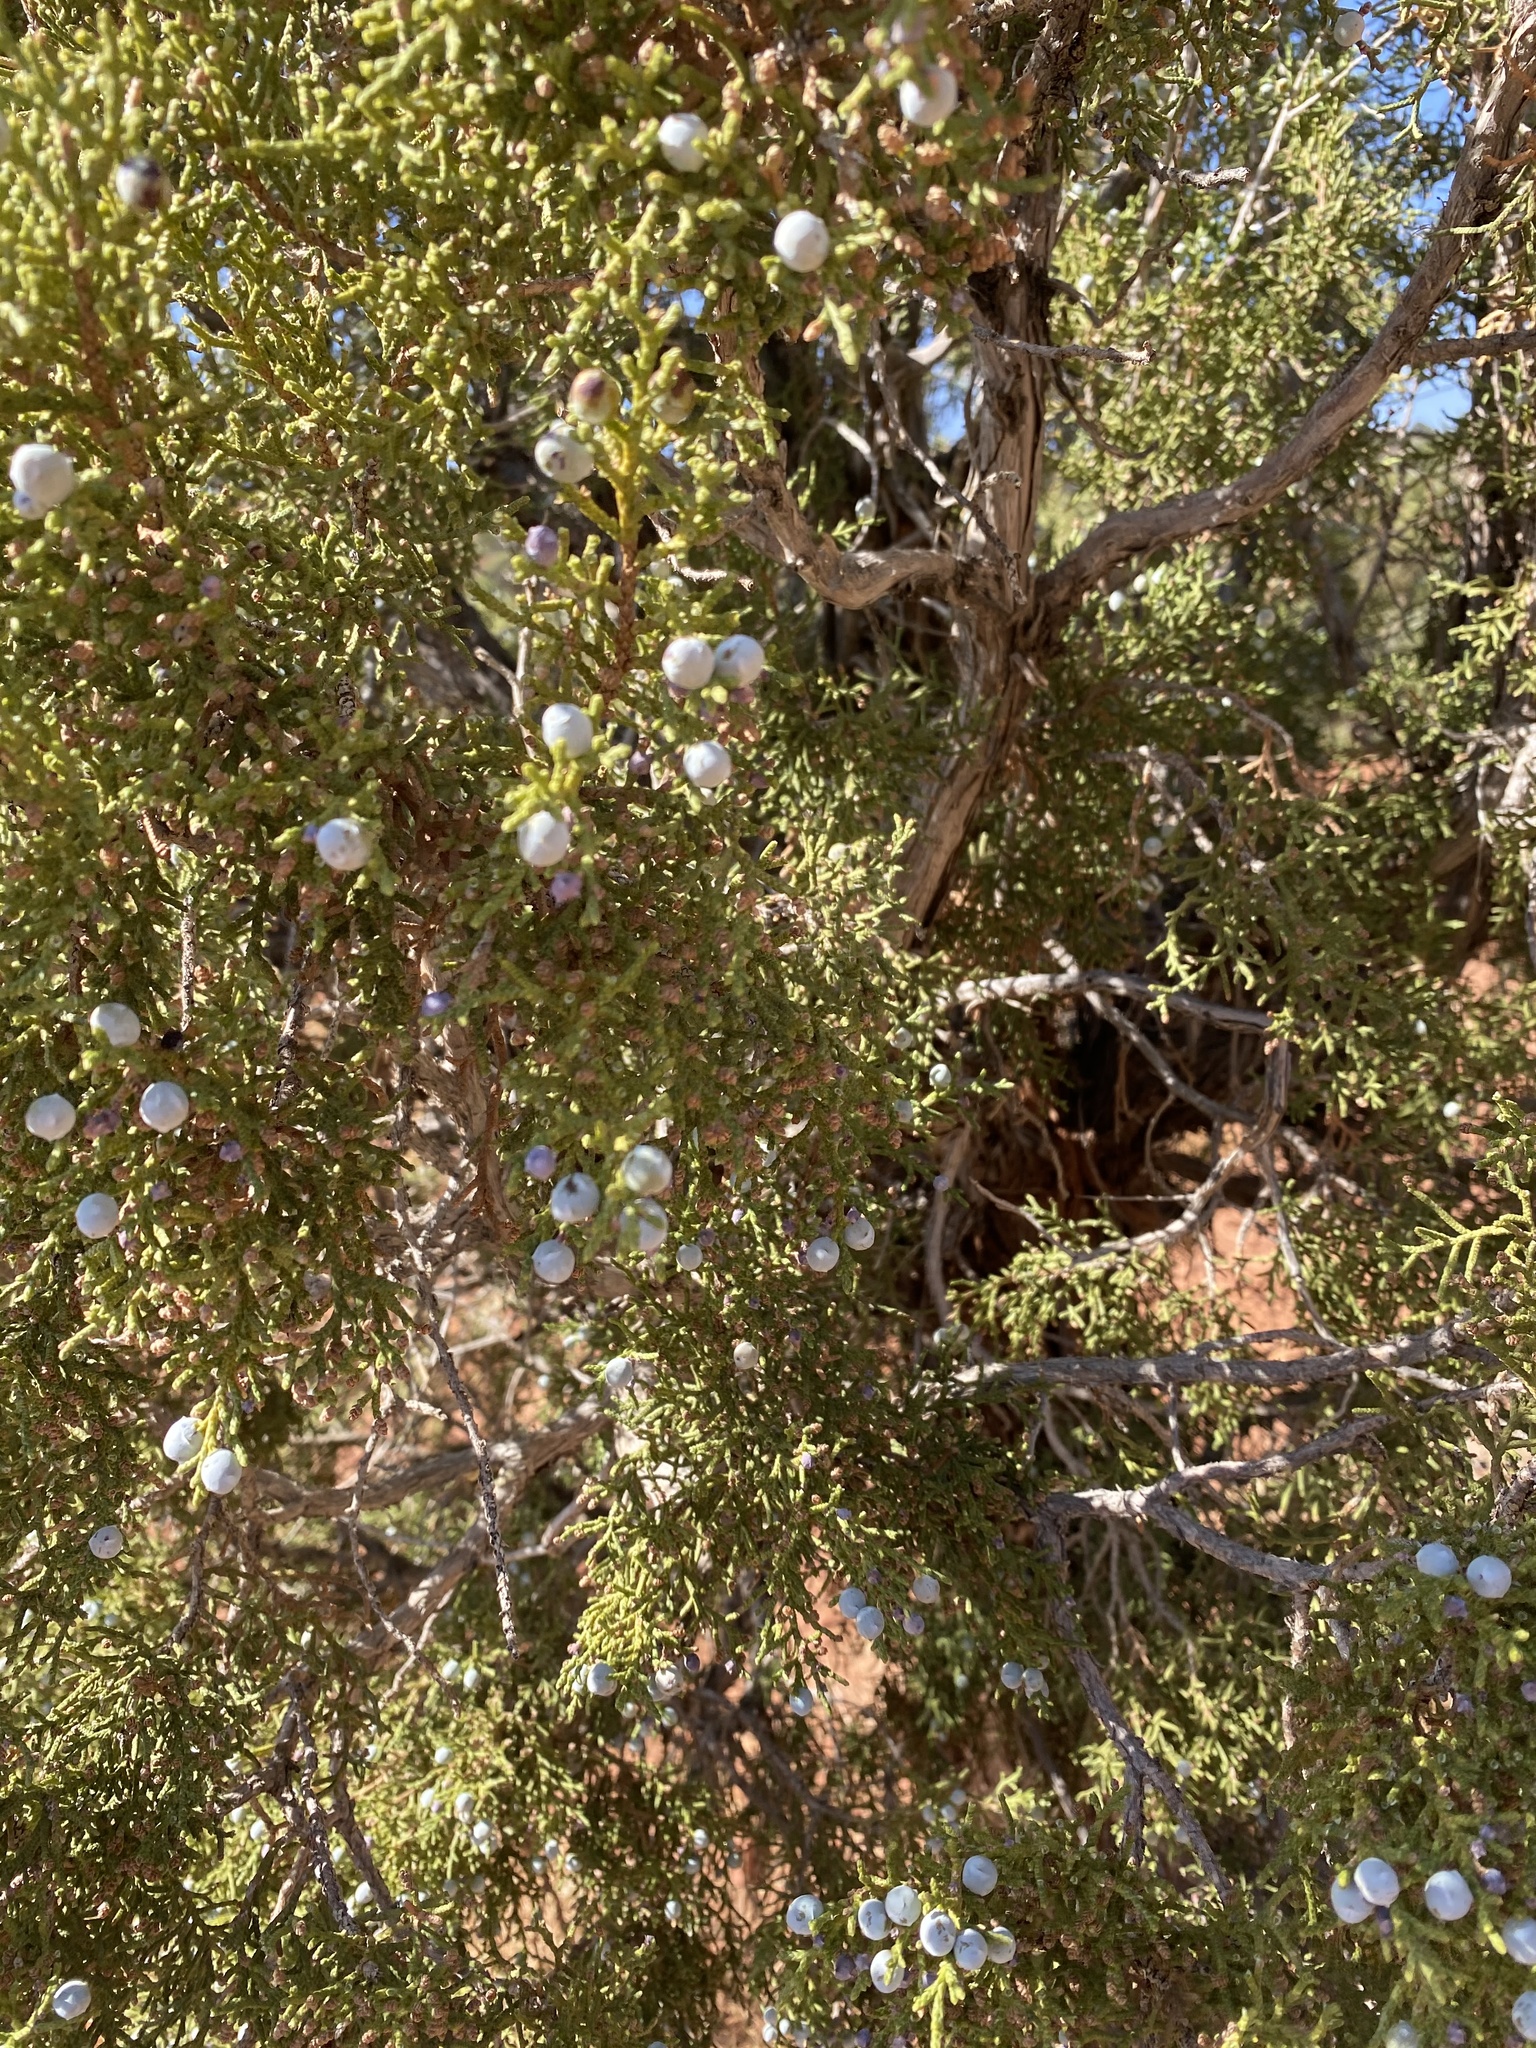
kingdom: Plantae
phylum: Tracheophyta
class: Pinopsida
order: Pinales
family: Cupressaceae
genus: Juniperus
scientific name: Juniperus osteosperma
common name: Utah juniper
